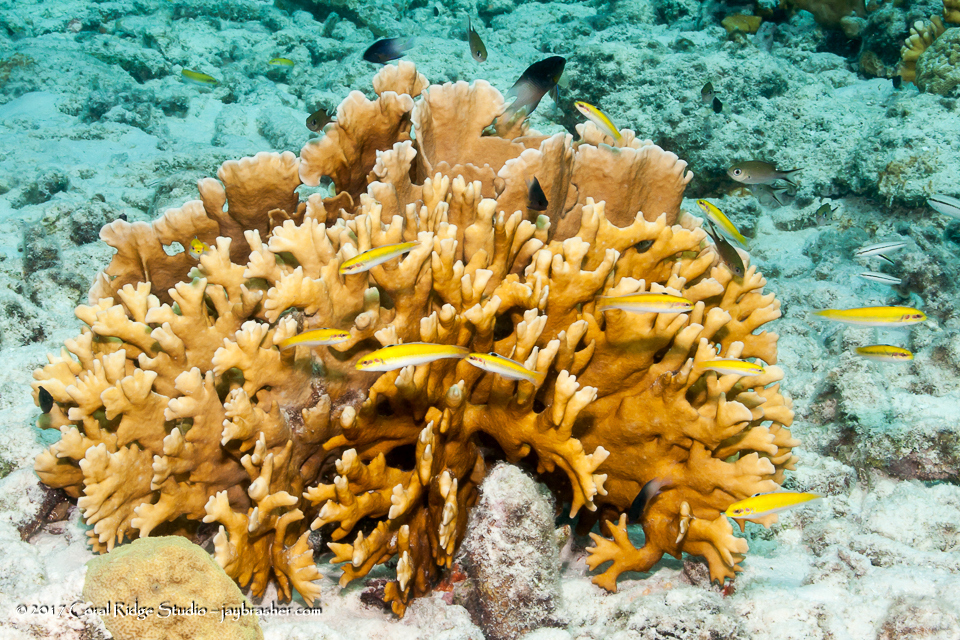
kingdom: Animalia
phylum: Cnidaria
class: Hydrozoa
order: Anthoathecata
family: Milleporidae
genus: Millepora
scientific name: Millepora complanata
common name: Bladed fire coral
